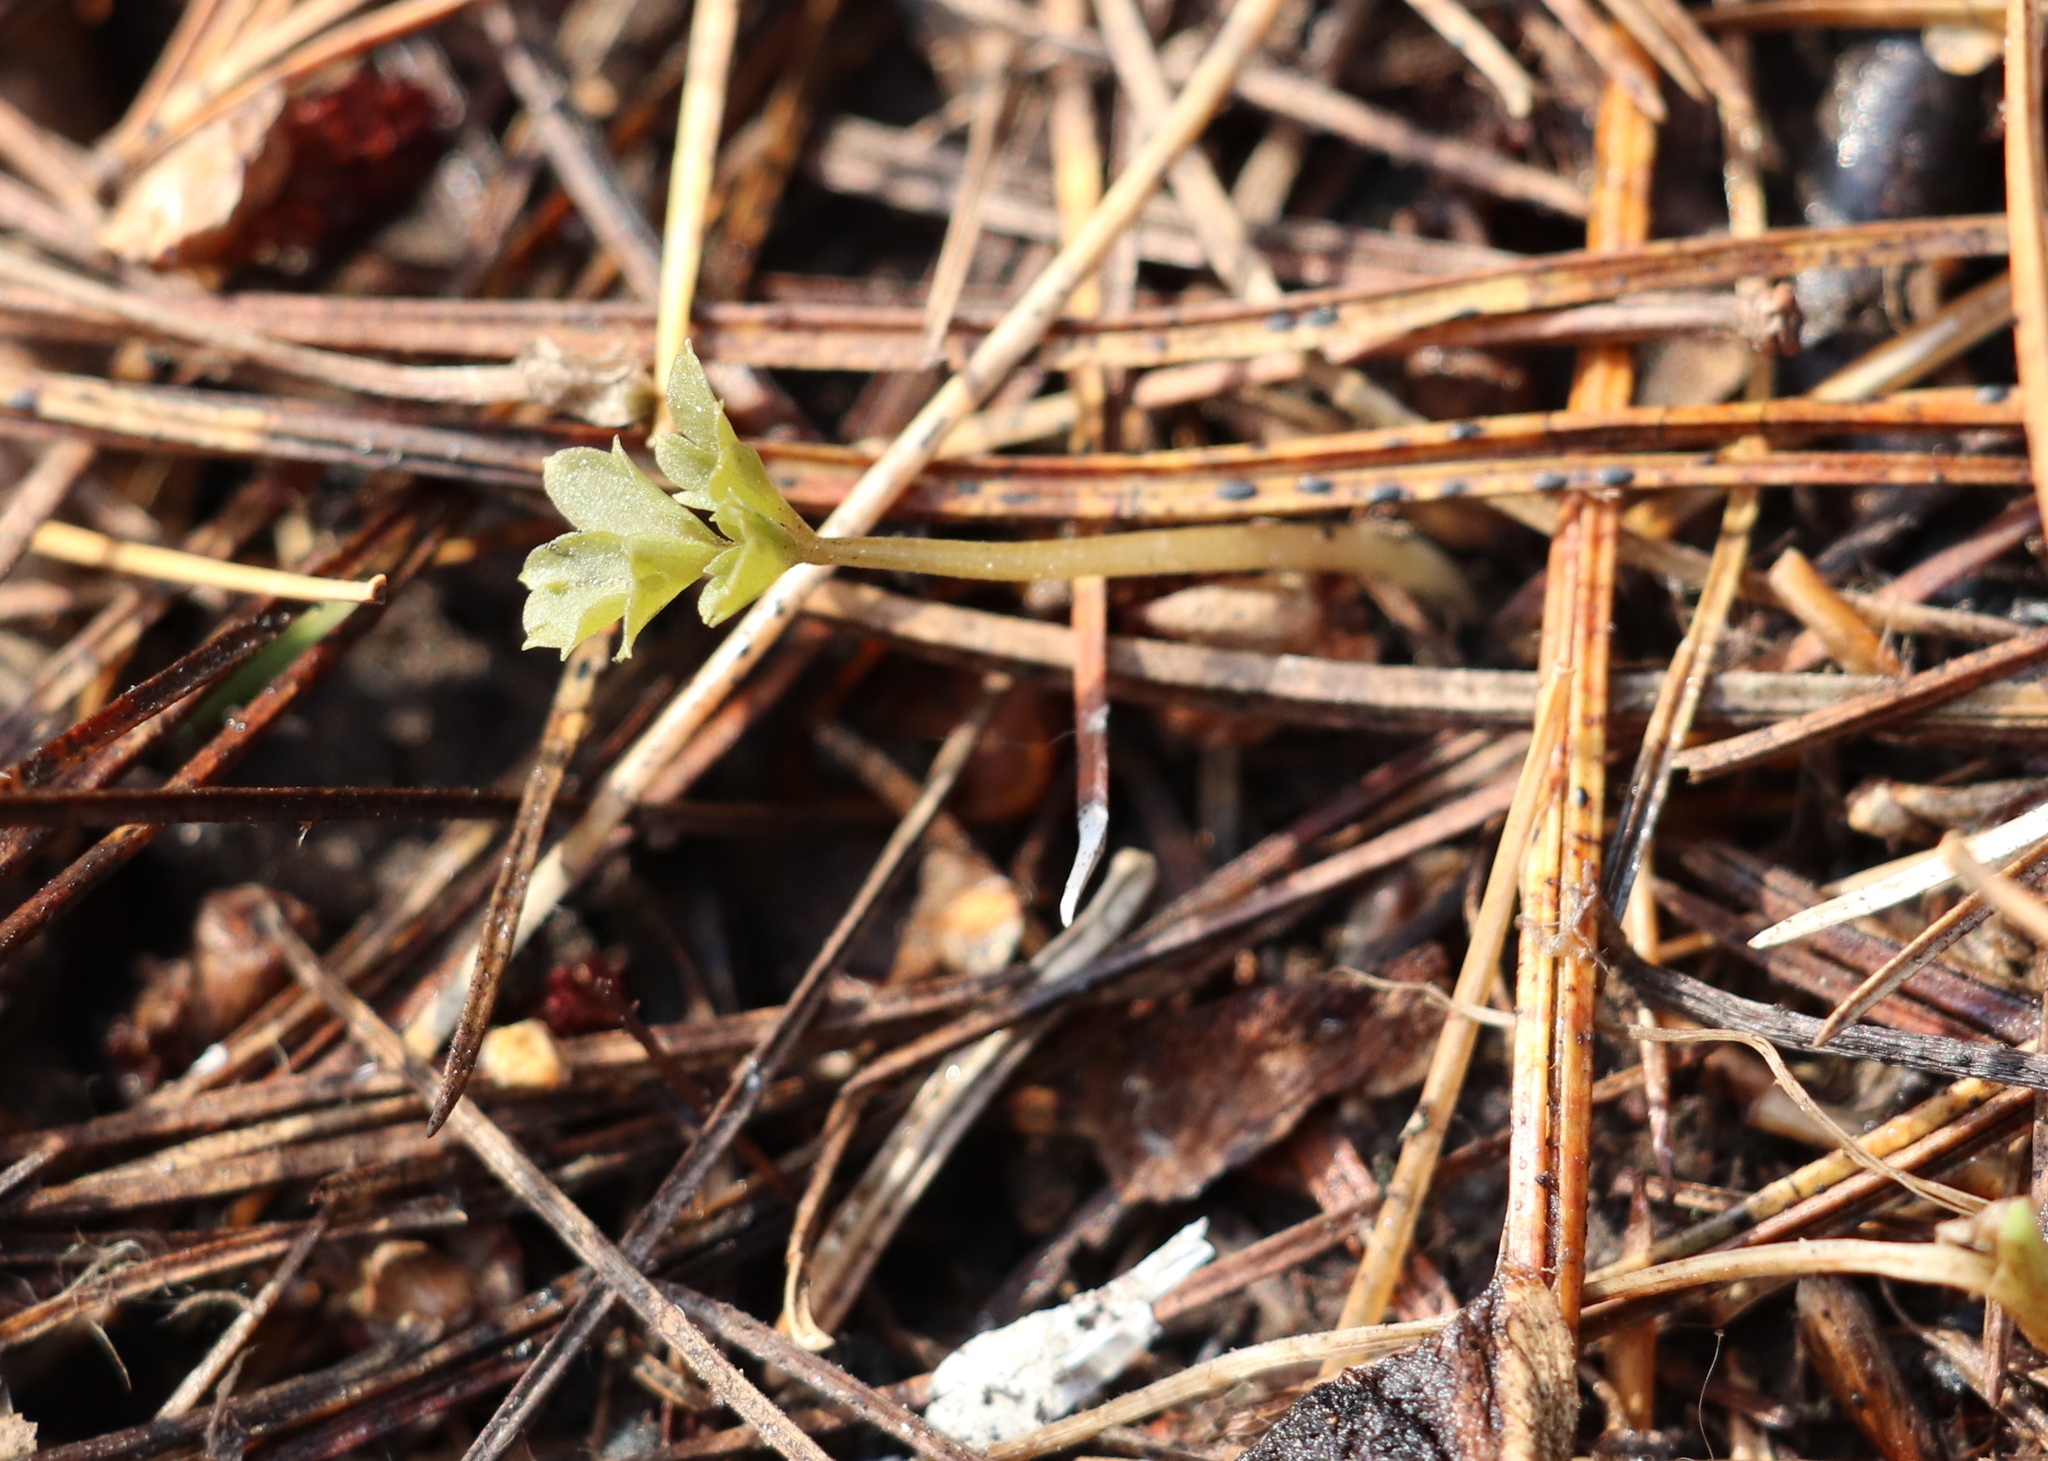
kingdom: Plantae
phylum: Tracheophyta
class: Magnoliopsida
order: Dipsacales
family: Viburnaceae
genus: Adoxa
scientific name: Adoxa moschatellina
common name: Moschatel
